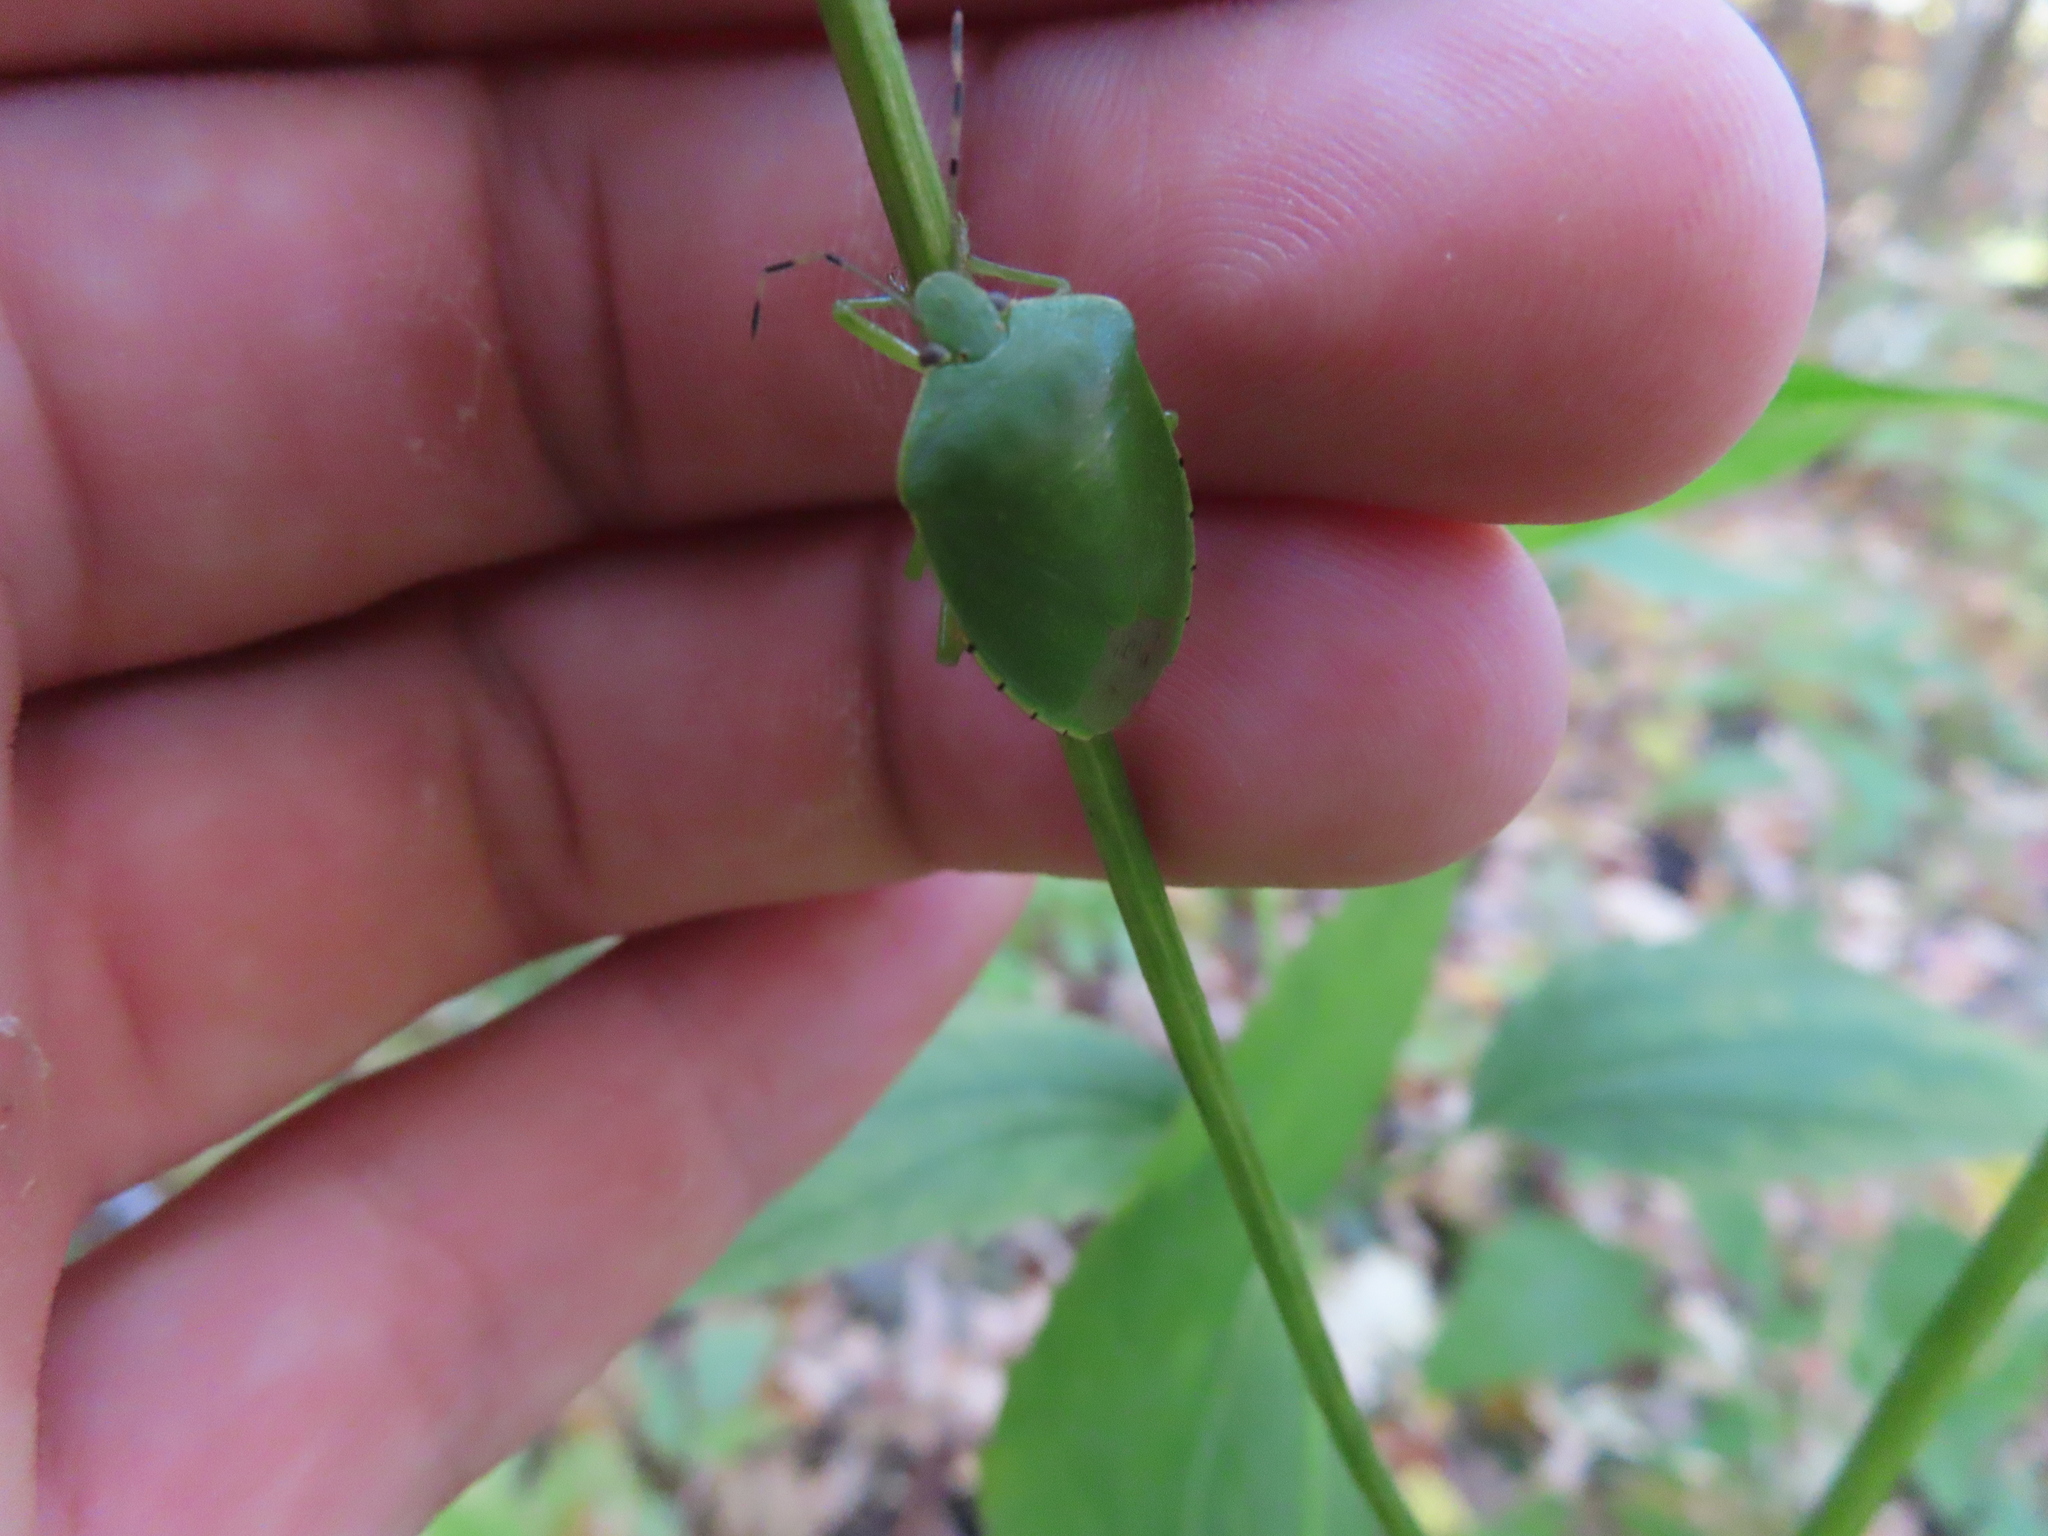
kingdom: Animalia
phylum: Arthropoda
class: Insecta
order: Hemiptera
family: Pentatomidae
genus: Chinavia
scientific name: Chinavia hilaris
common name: Green stink bug
